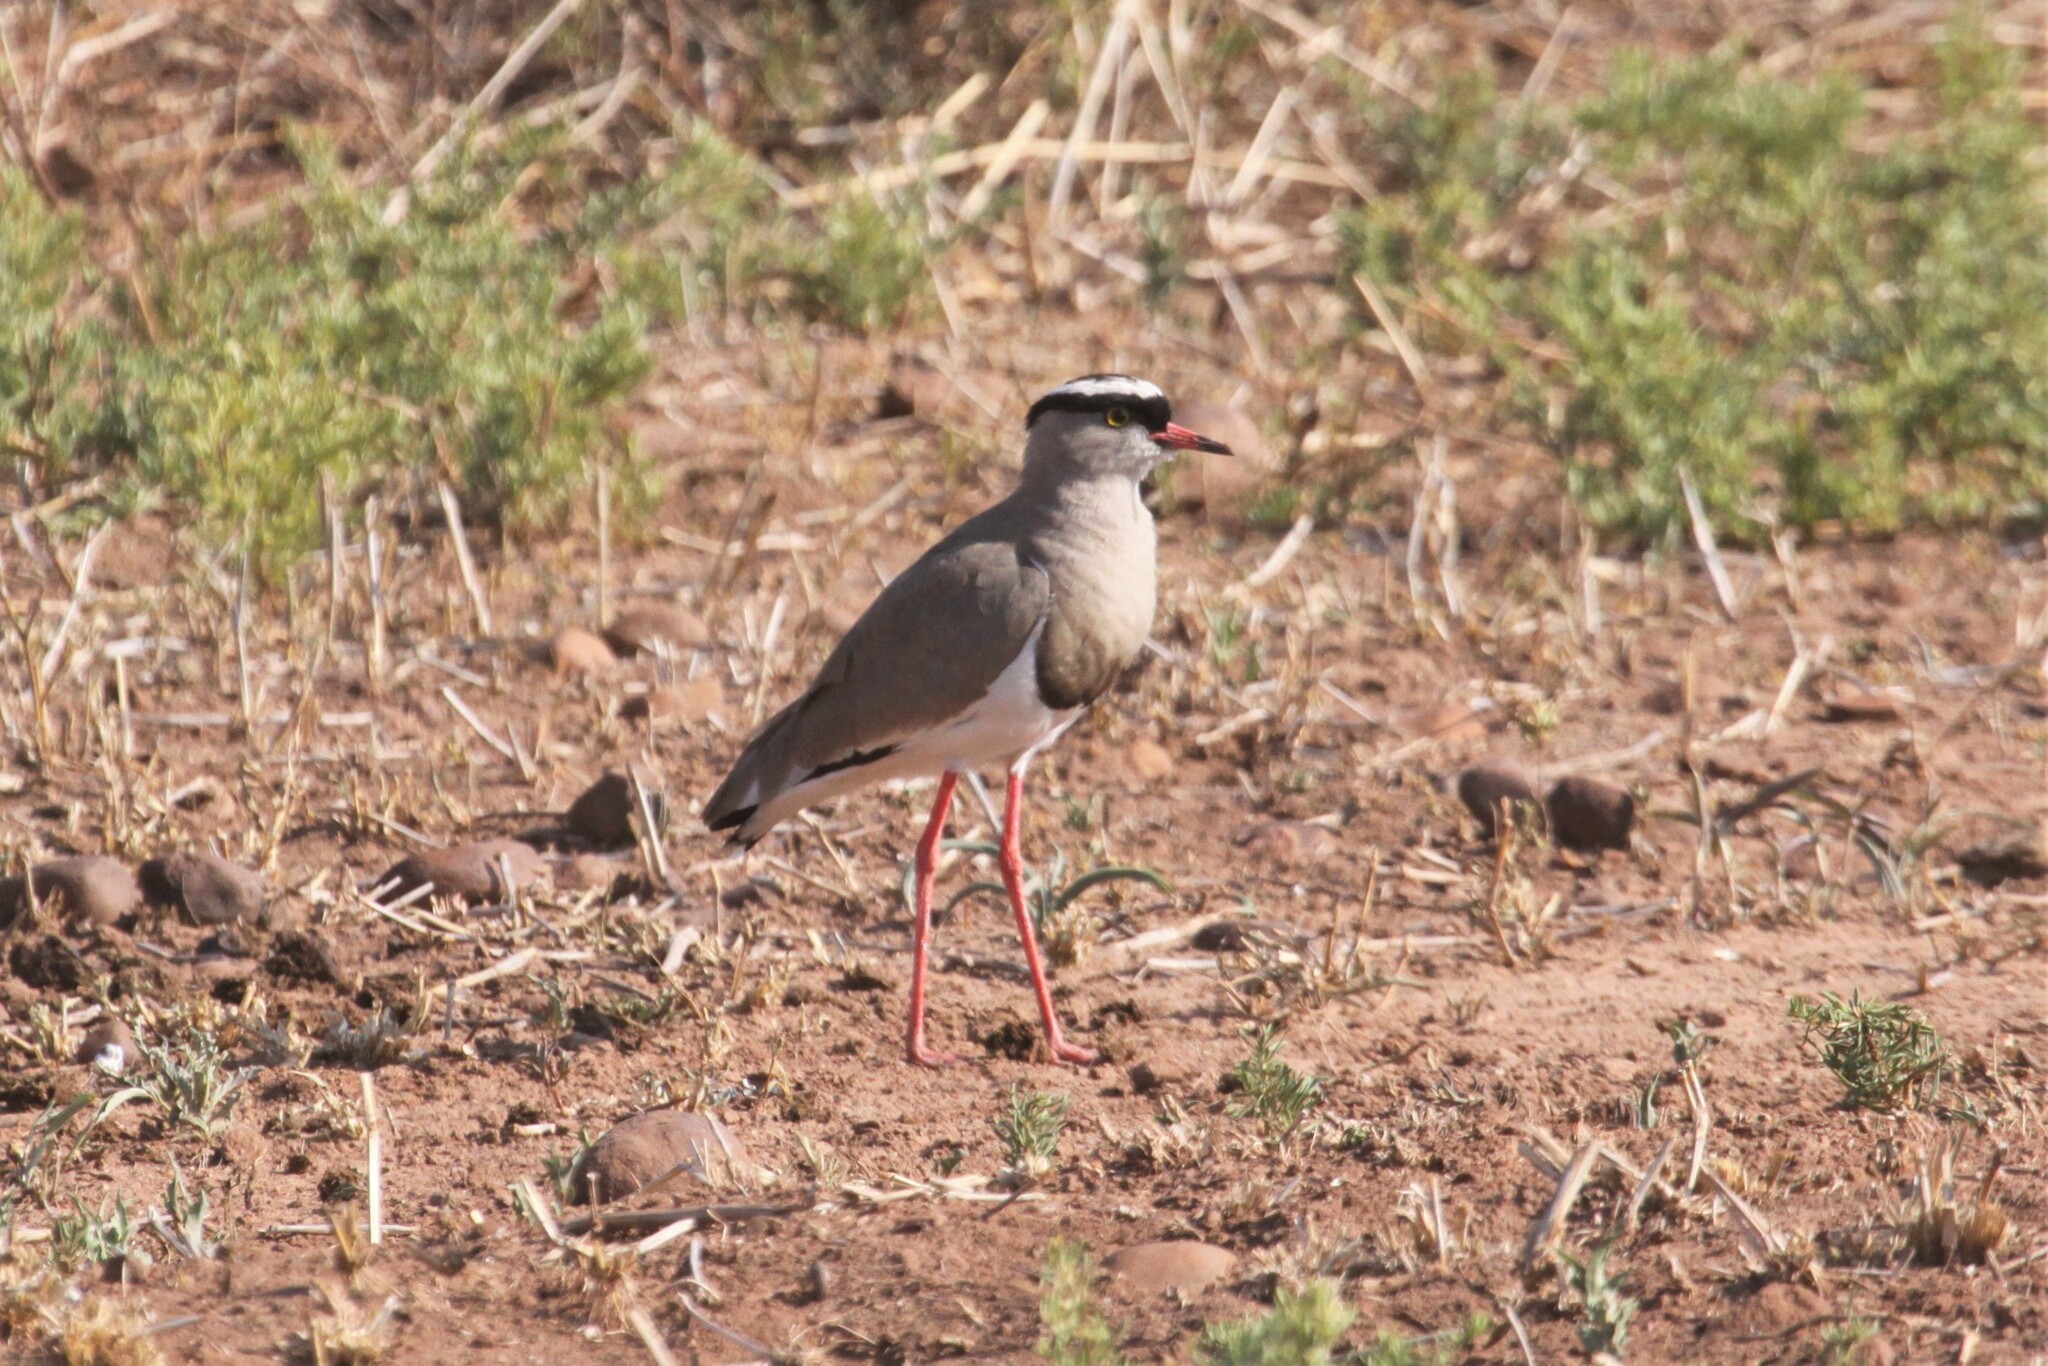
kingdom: Animalia
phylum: Chordata
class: Aves
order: Charadriiformes
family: Charadriidae
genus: Vanellus
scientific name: Vanellus coronatus
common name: Crowned lapwing
